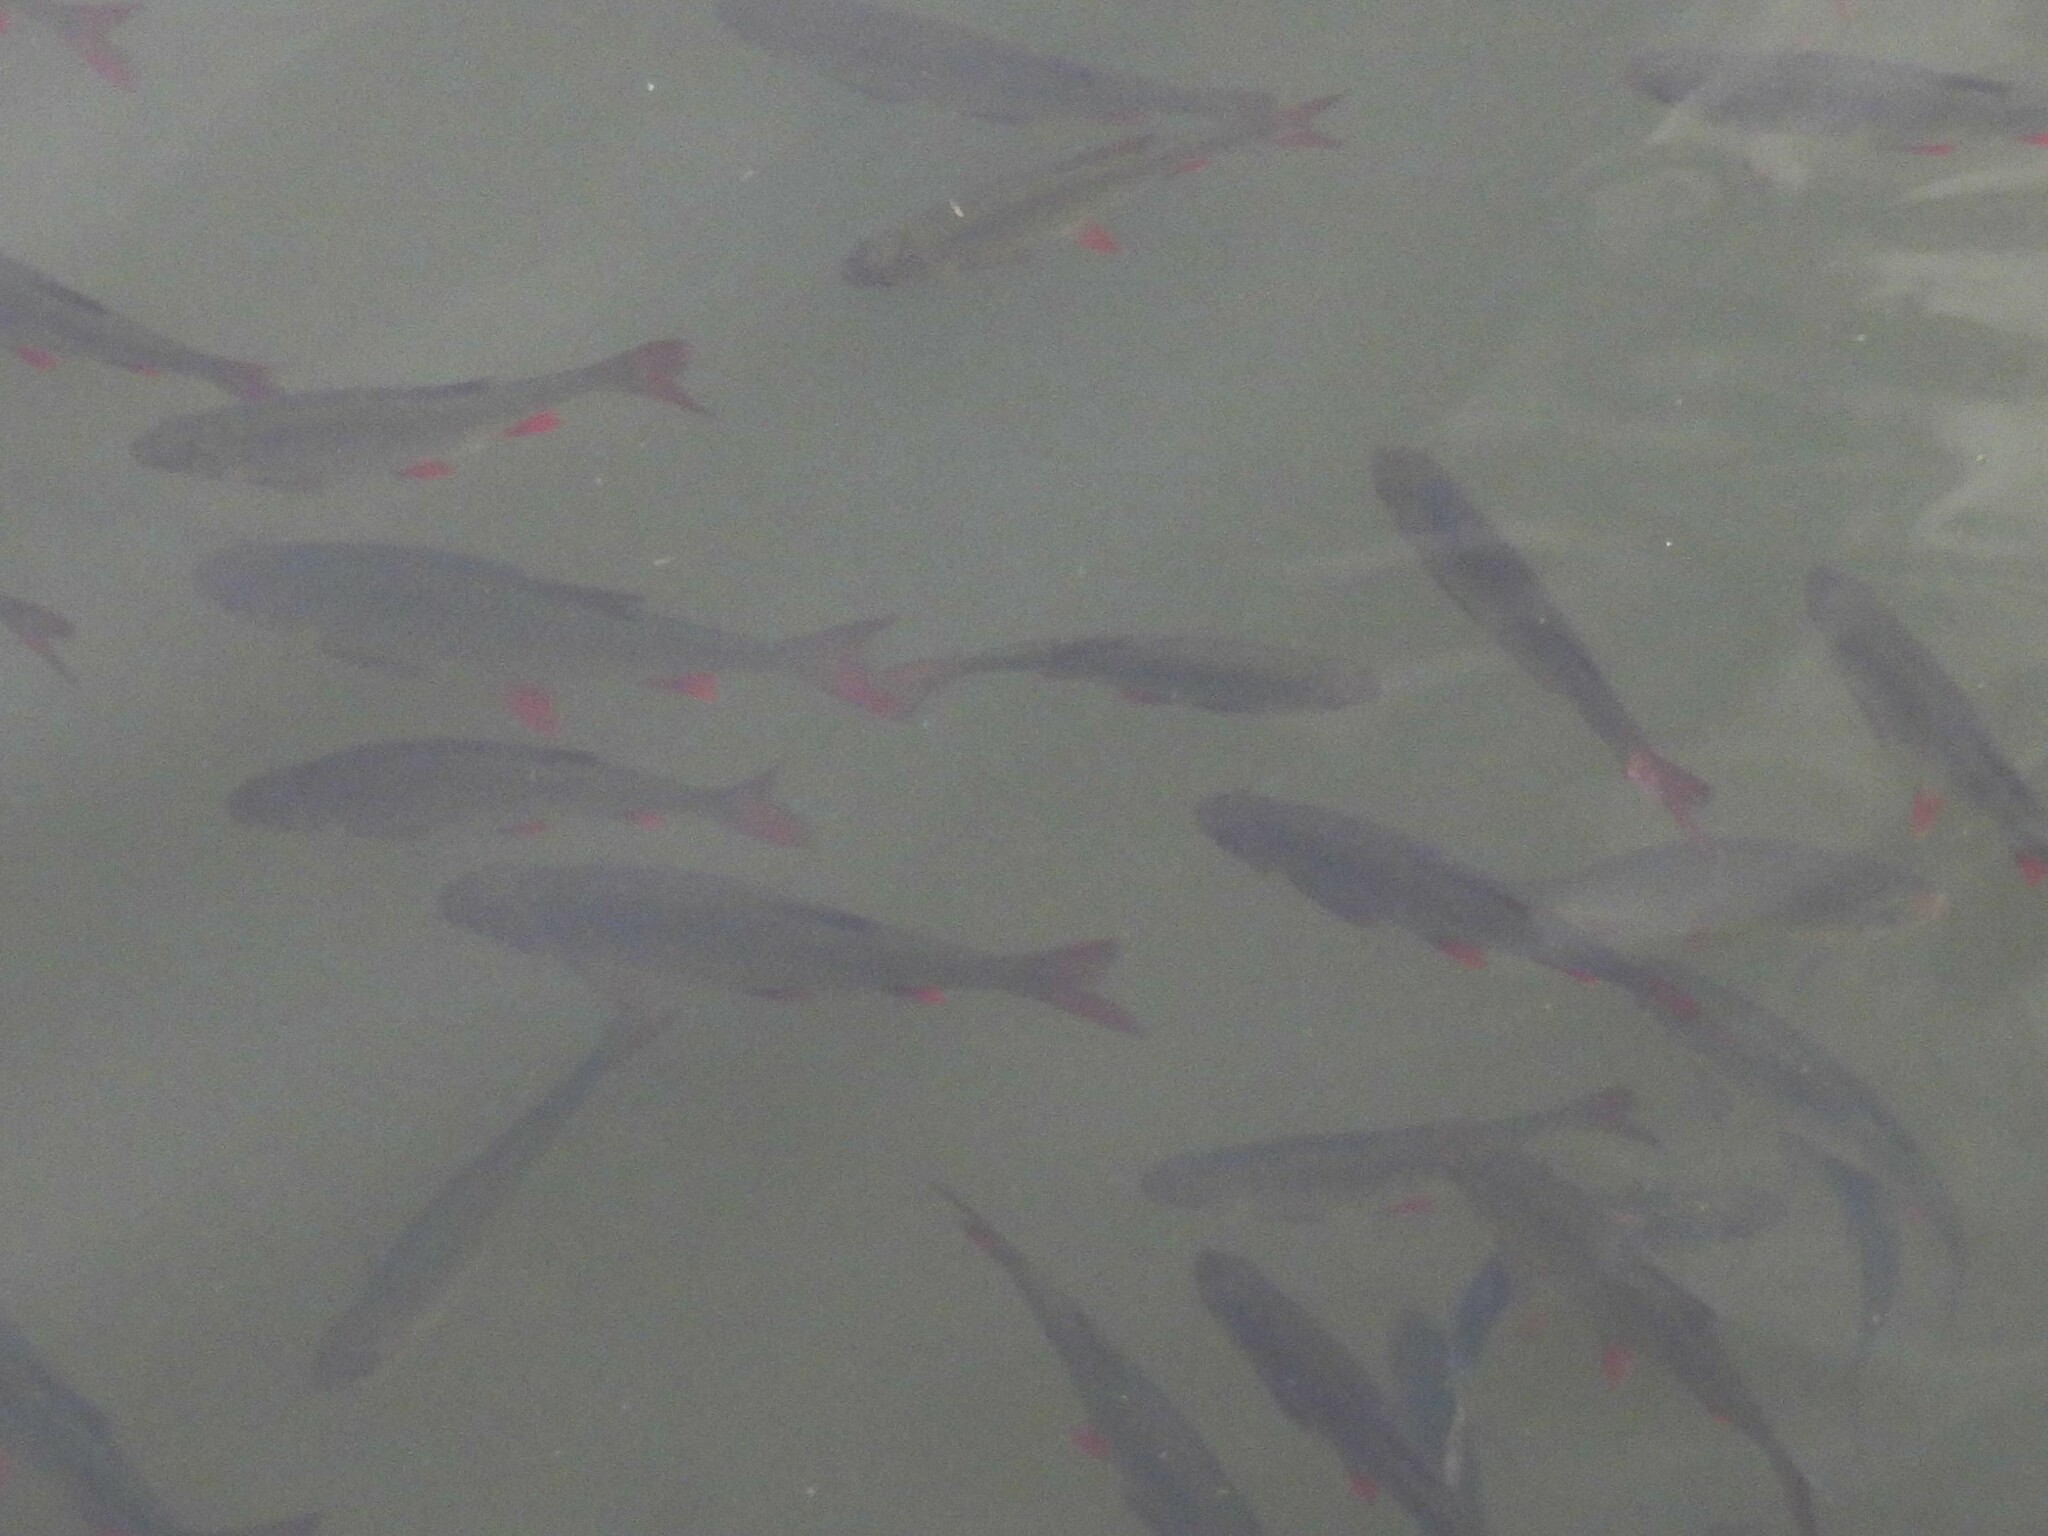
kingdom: Animalia
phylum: Chordata
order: Cypriniformes
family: Cyprinidae
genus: Scardinius
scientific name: Scardinius erythrophthalmus
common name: Rudd
